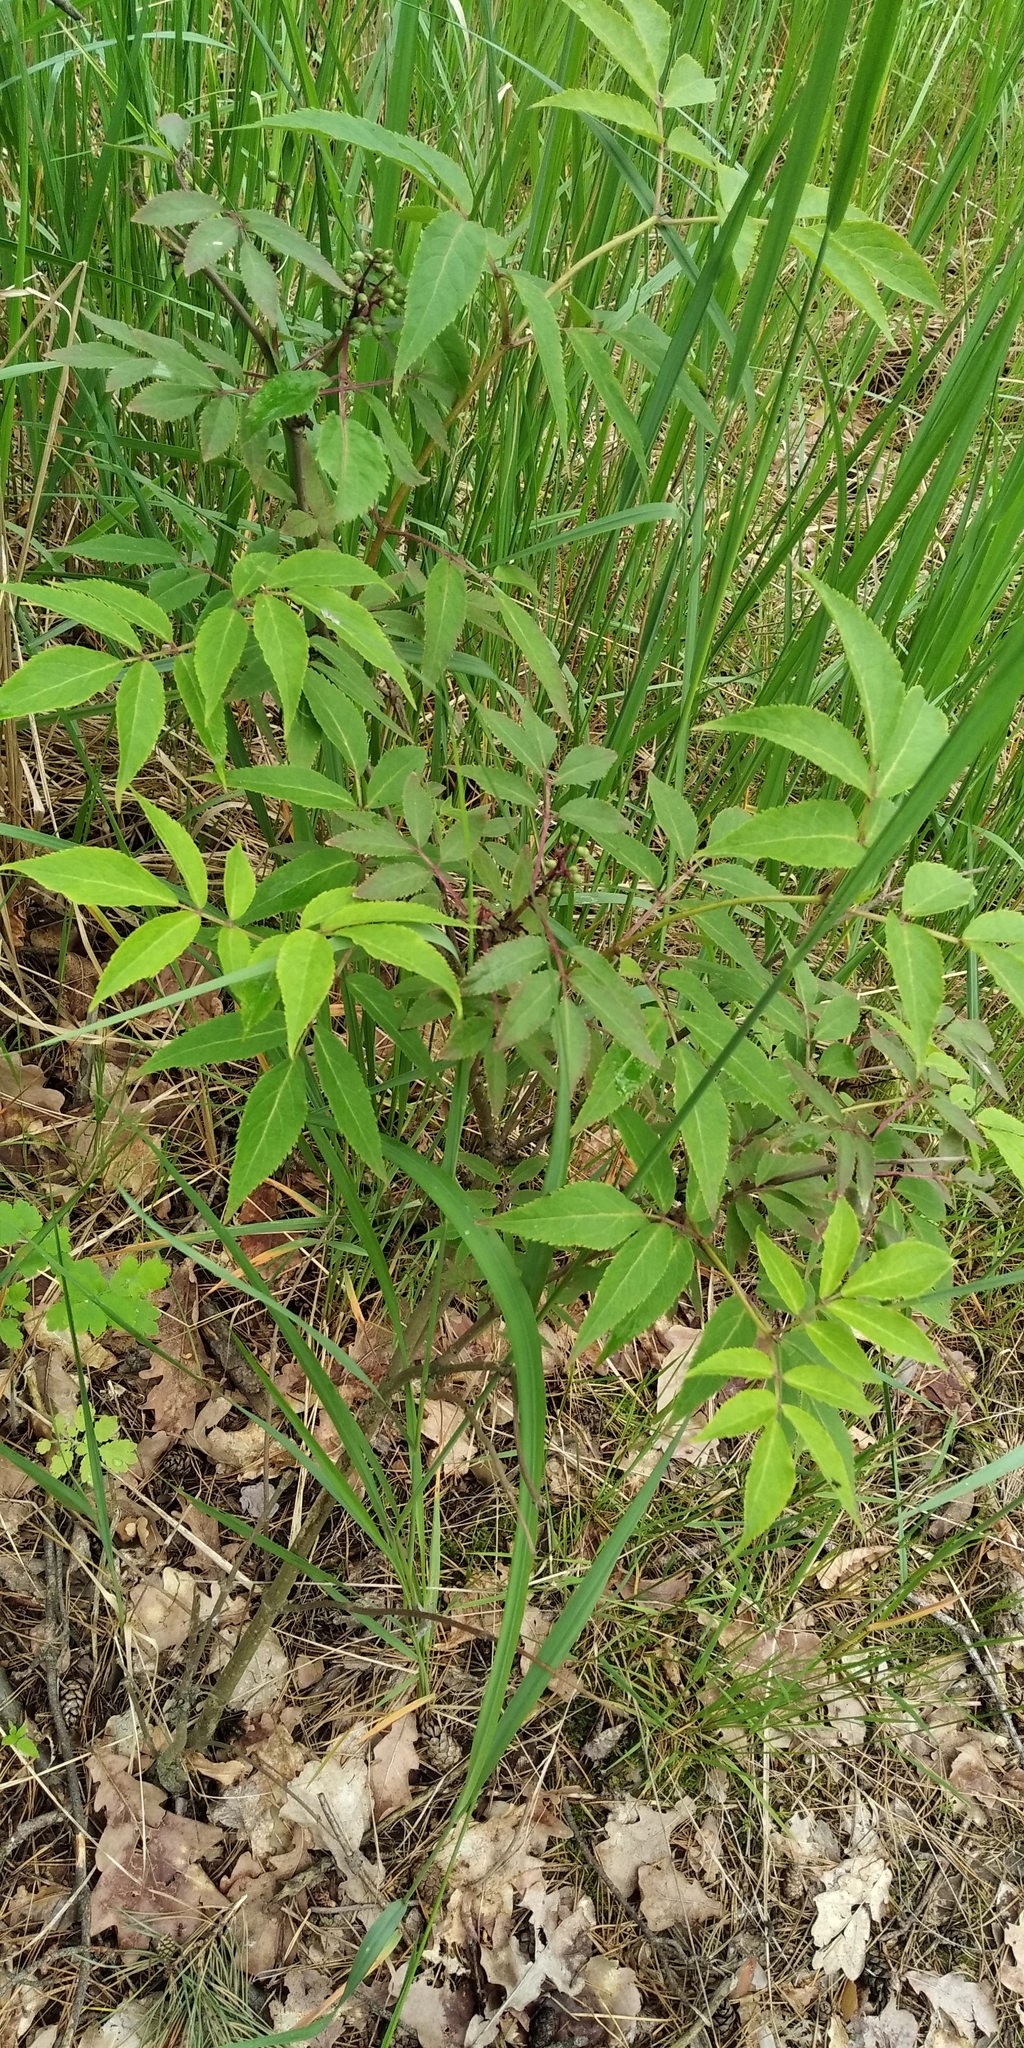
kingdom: Plantae
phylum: Tracheophyta
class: Magnoliopsida
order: Dipsacales
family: Viburnaceae
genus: Sambucus
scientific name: Sambucus racemosa
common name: Red-berried elder
